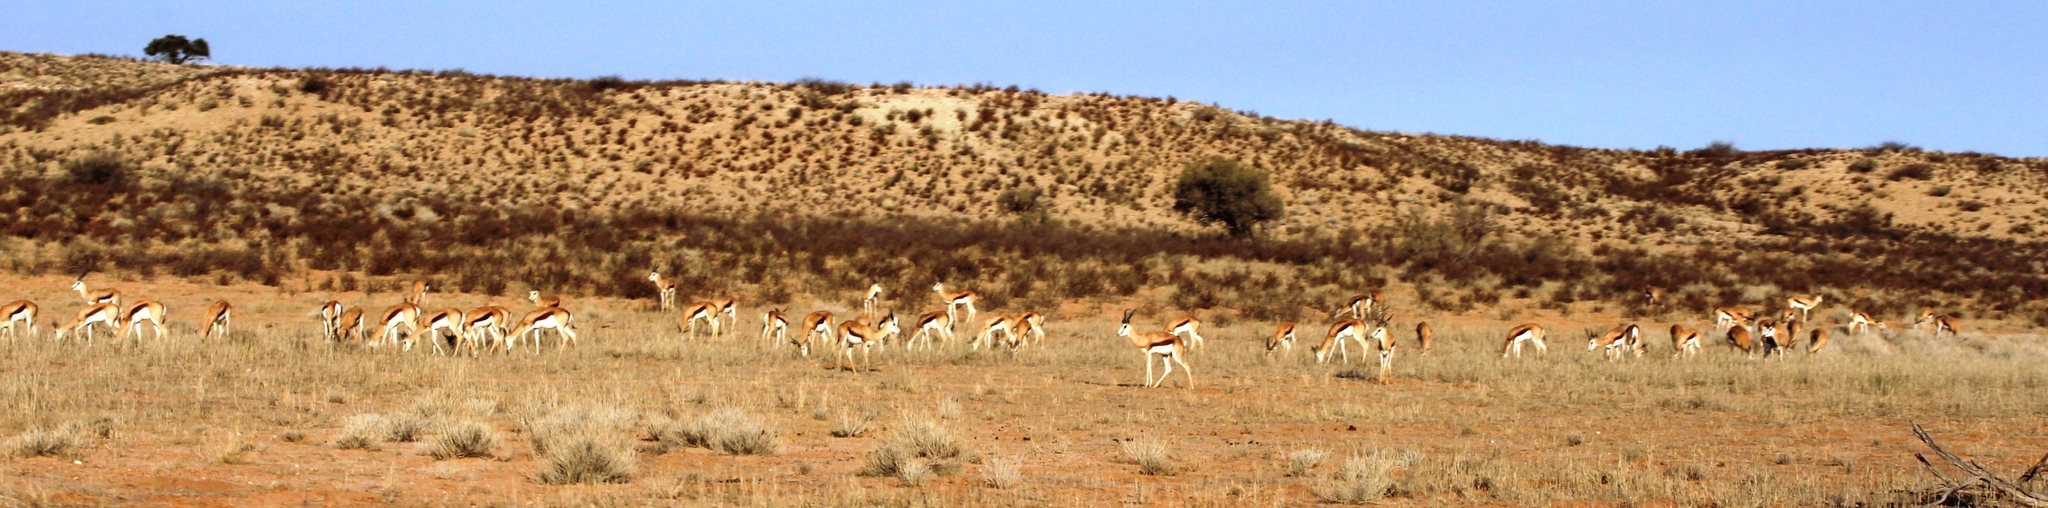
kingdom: Animalia
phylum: Chordata
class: Mammalia
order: Artiodactyla
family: Bovidae
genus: Antidorcas
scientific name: Antidorcas marsupialis
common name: Springbok
